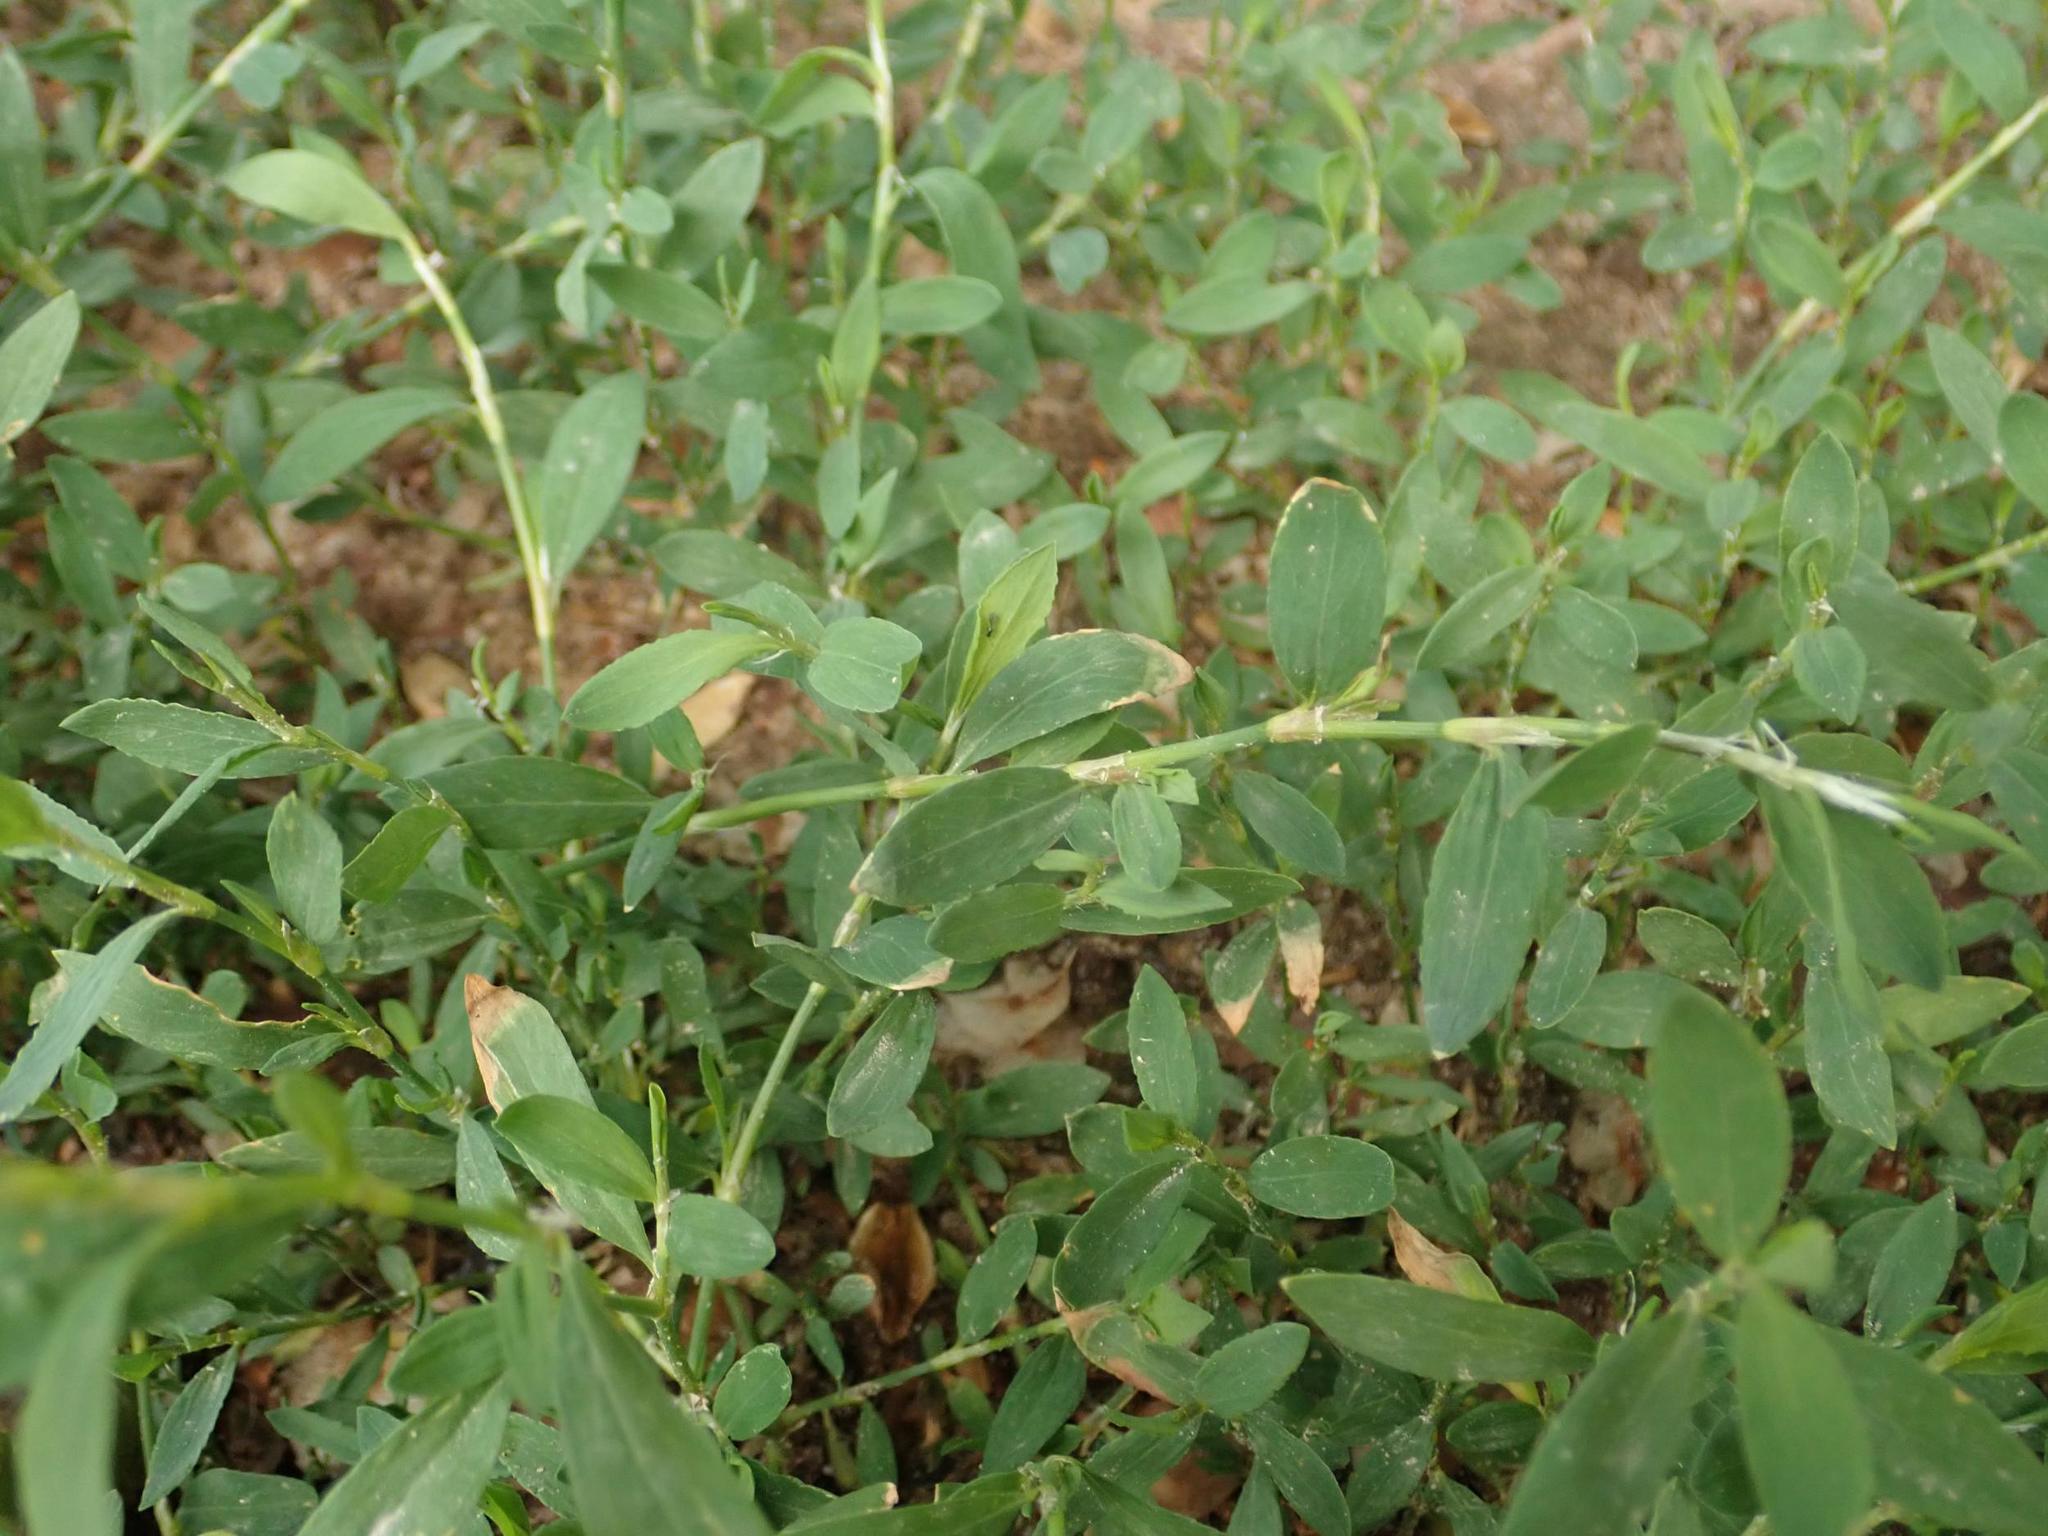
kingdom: Plantae
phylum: Tracheophyta
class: Magnoliopsida
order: Caryophyllales
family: Polygonaceae
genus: Polygonum
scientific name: Polygonum aviculare
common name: Prostrate knotweed
